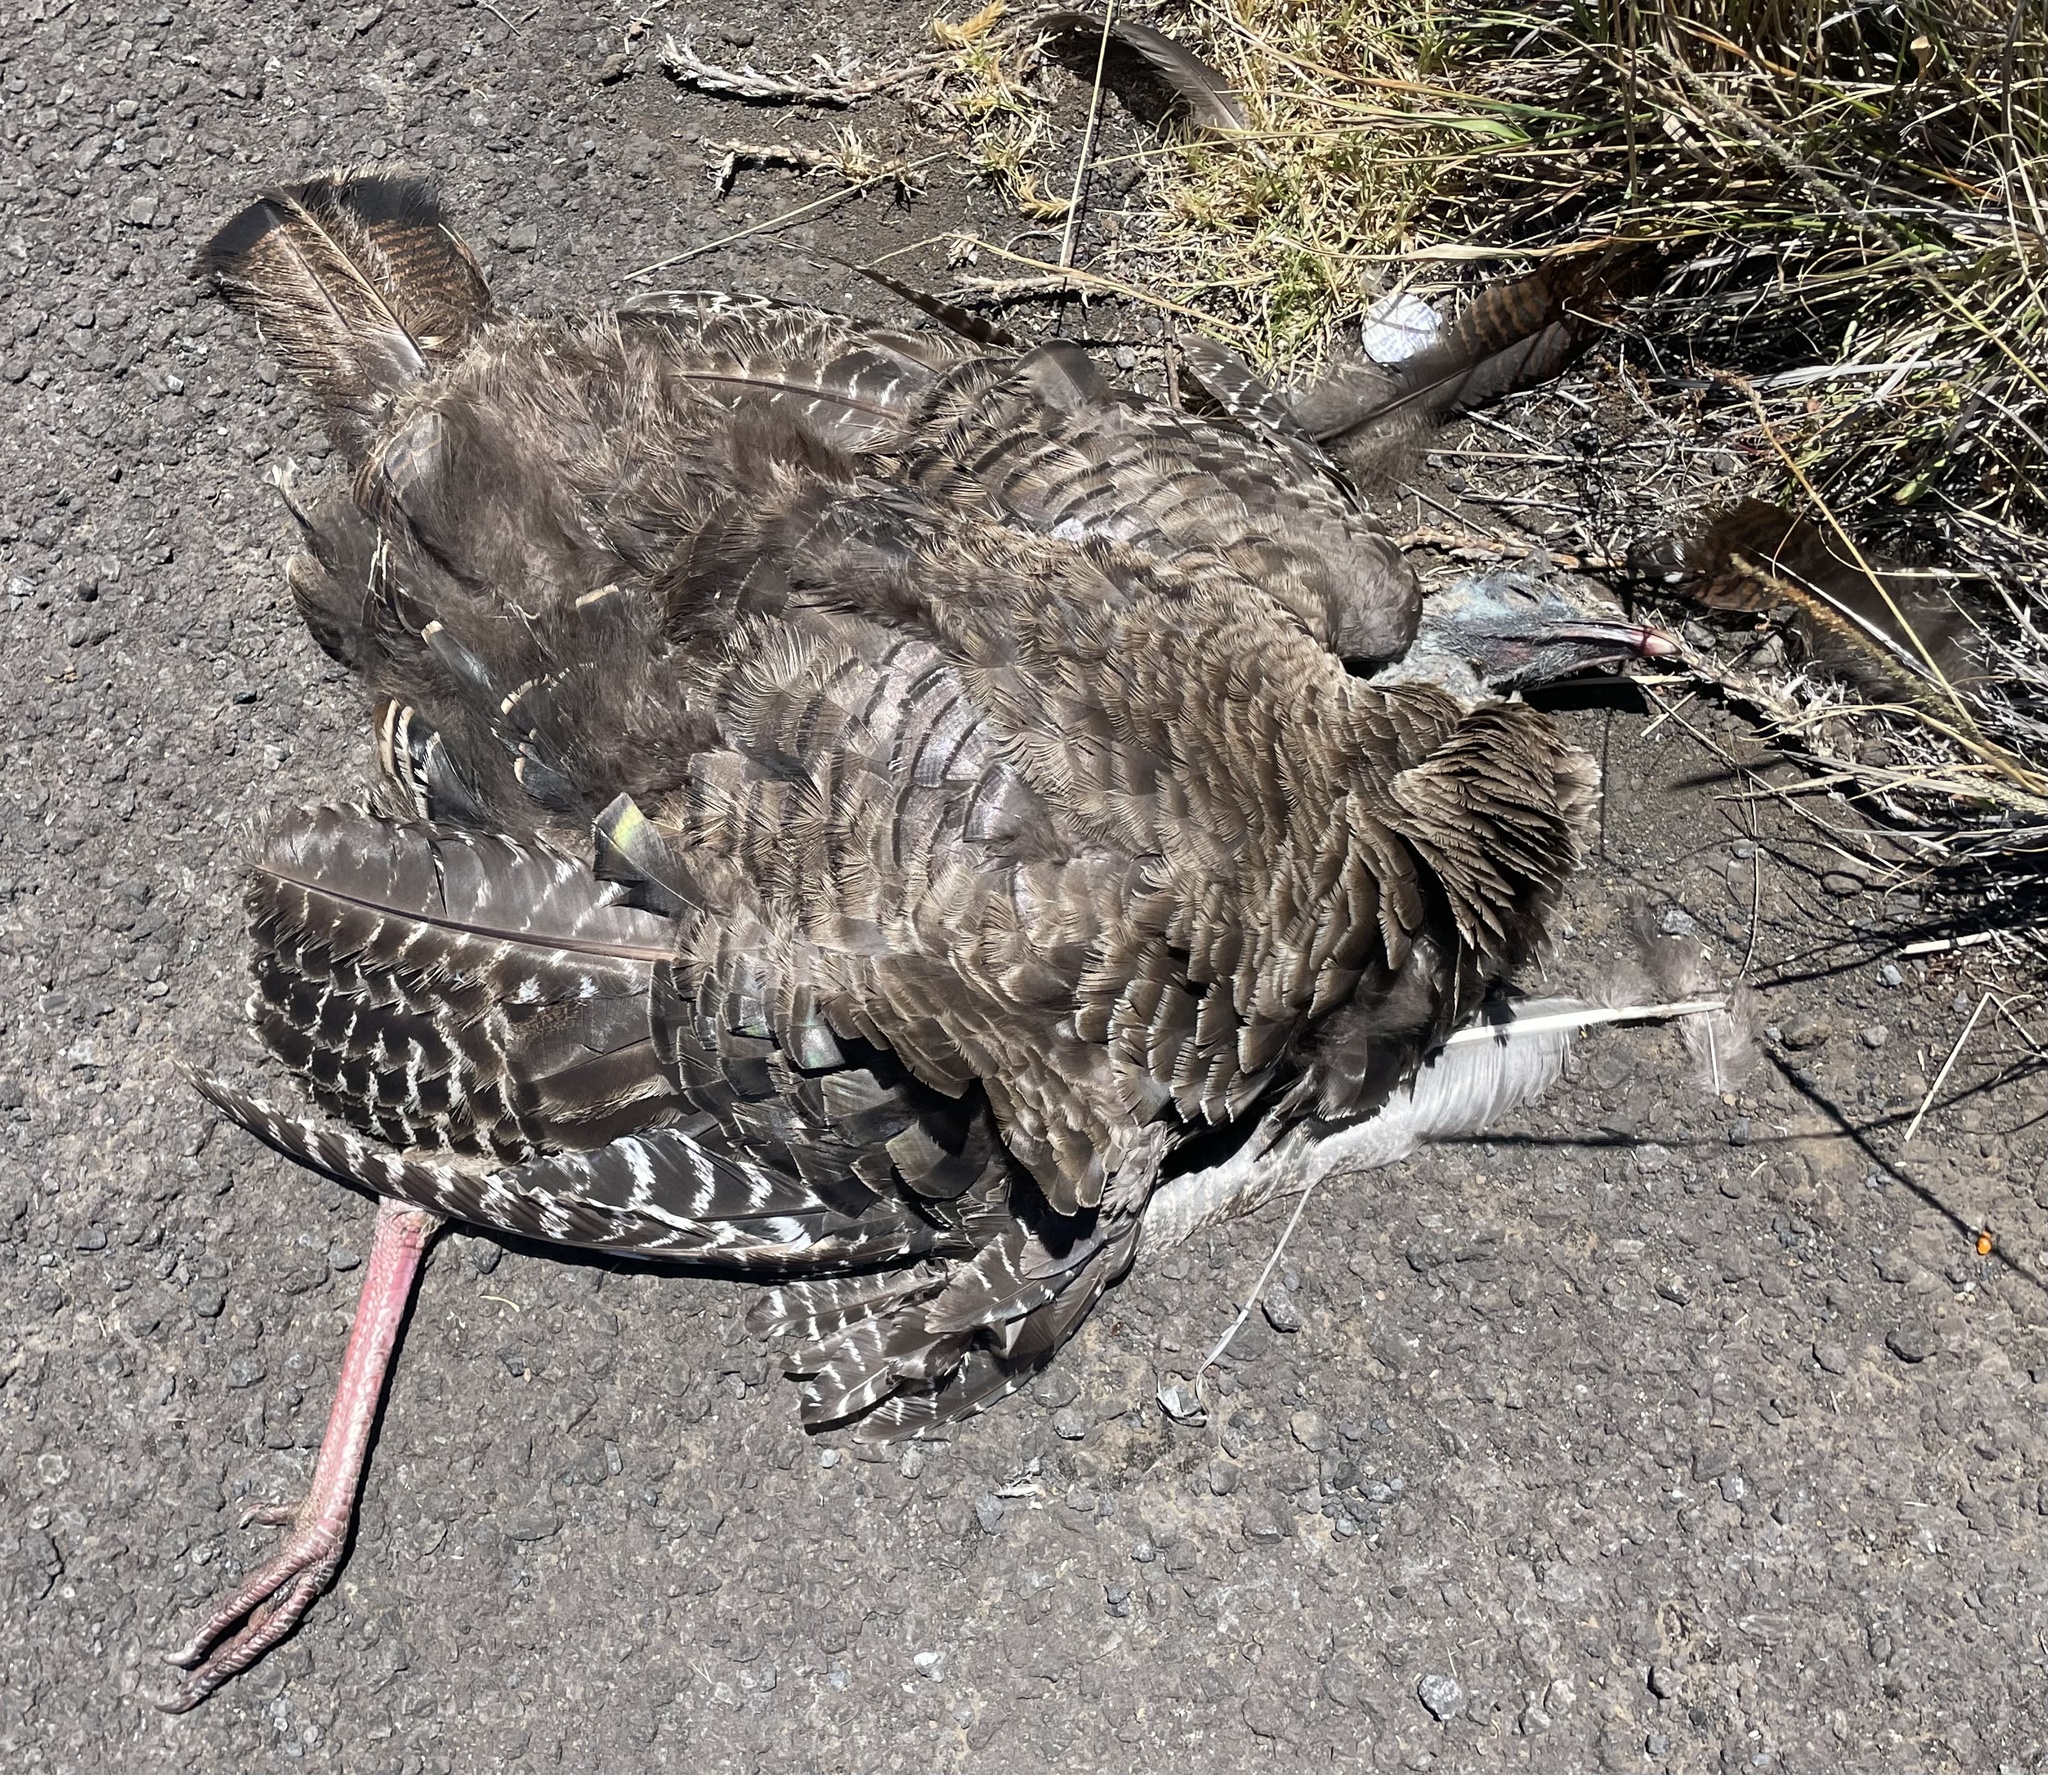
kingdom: Animalia
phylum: Chordata
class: Aves
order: Galliformes
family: Phasianidae
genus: Meleagris
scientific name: Meleagris gallopavo
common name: Wild turkey
